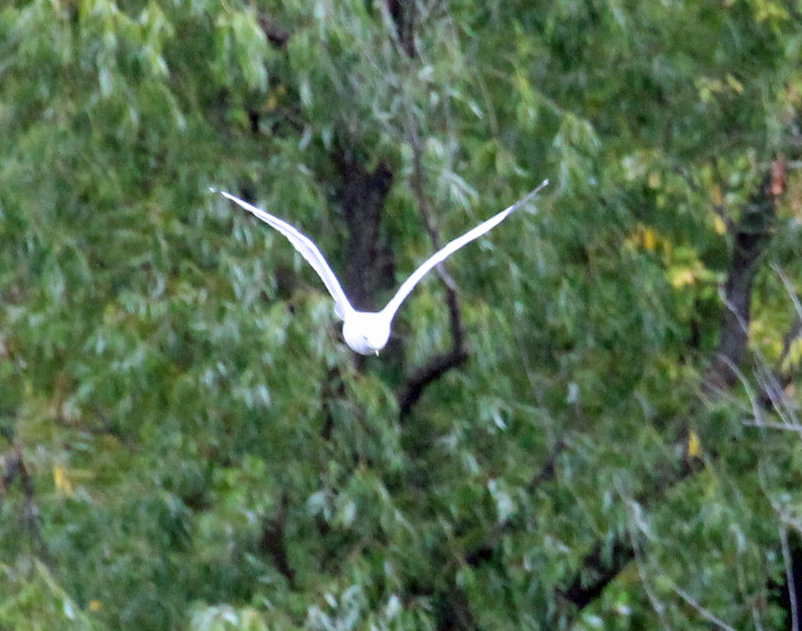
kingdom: Animalia
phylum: Chordata
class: Aves
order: Charadriiformes
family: Laridae
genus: Larus
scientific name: Larus delawarensis
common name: Ring-billed gull
